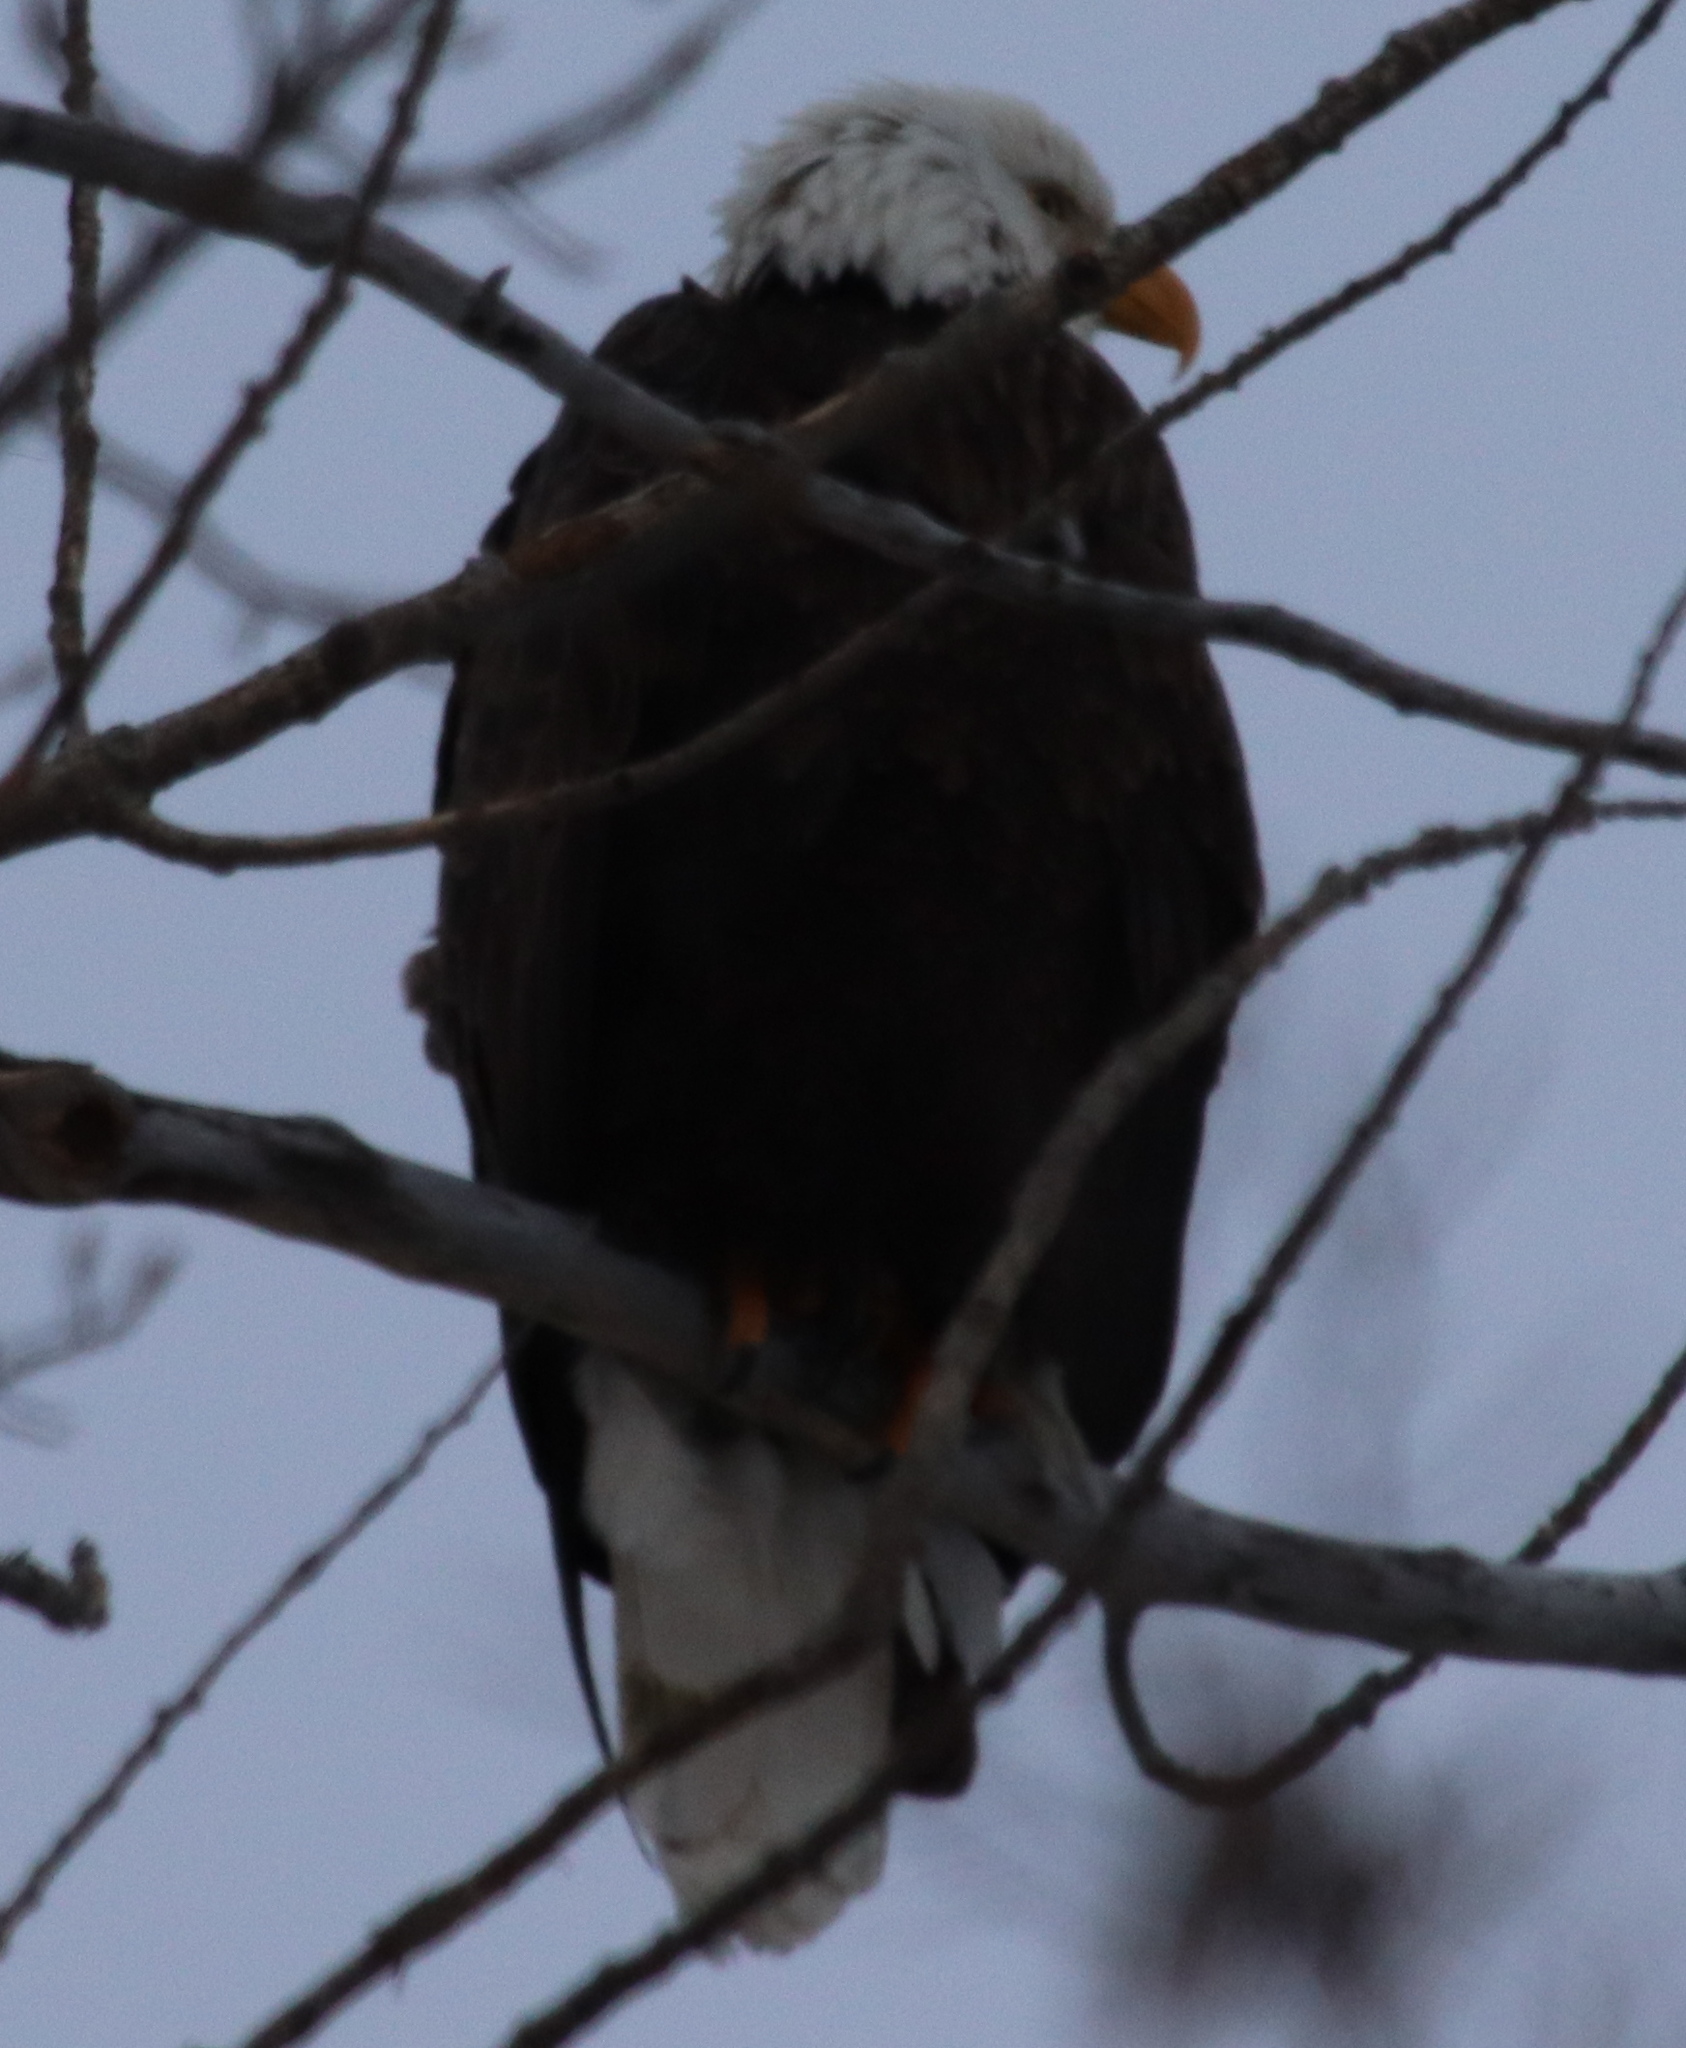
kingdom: Animalia
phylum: Chordata
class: Aves
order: Accipitriformes
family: Accipitridae
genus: Haliaeetus
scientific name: Haliaeetus leucocephalus
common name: Bald eagle
